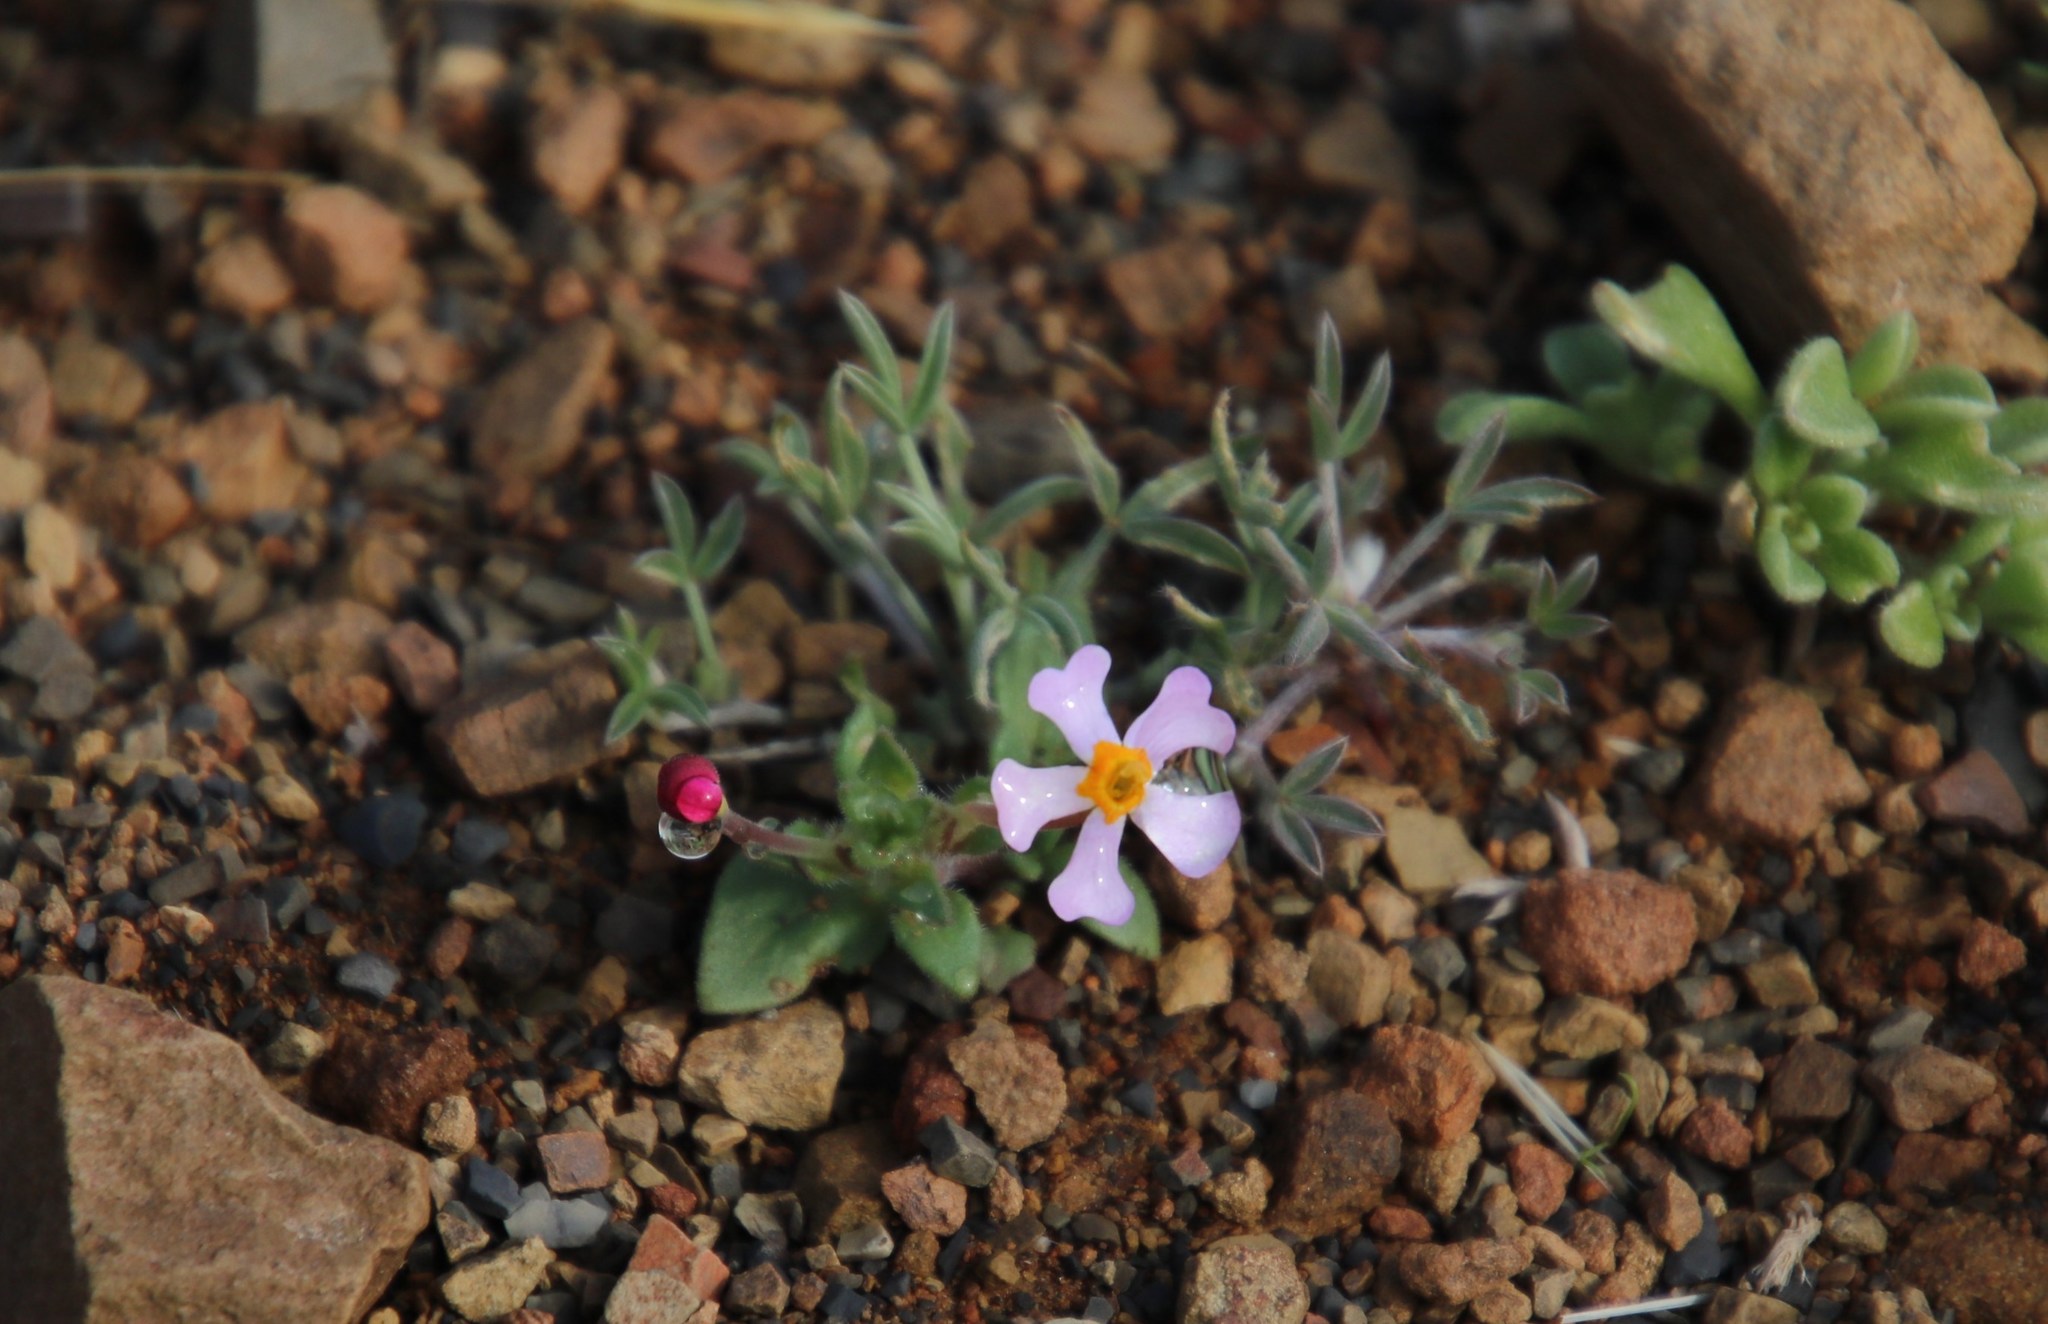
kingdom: Plantae
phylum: Tracheophyta
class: Magnoliopsida
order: Lamiales
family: Scrophulariaceae
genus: Zaluzianskya
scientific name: Zaluzianskya violacea
